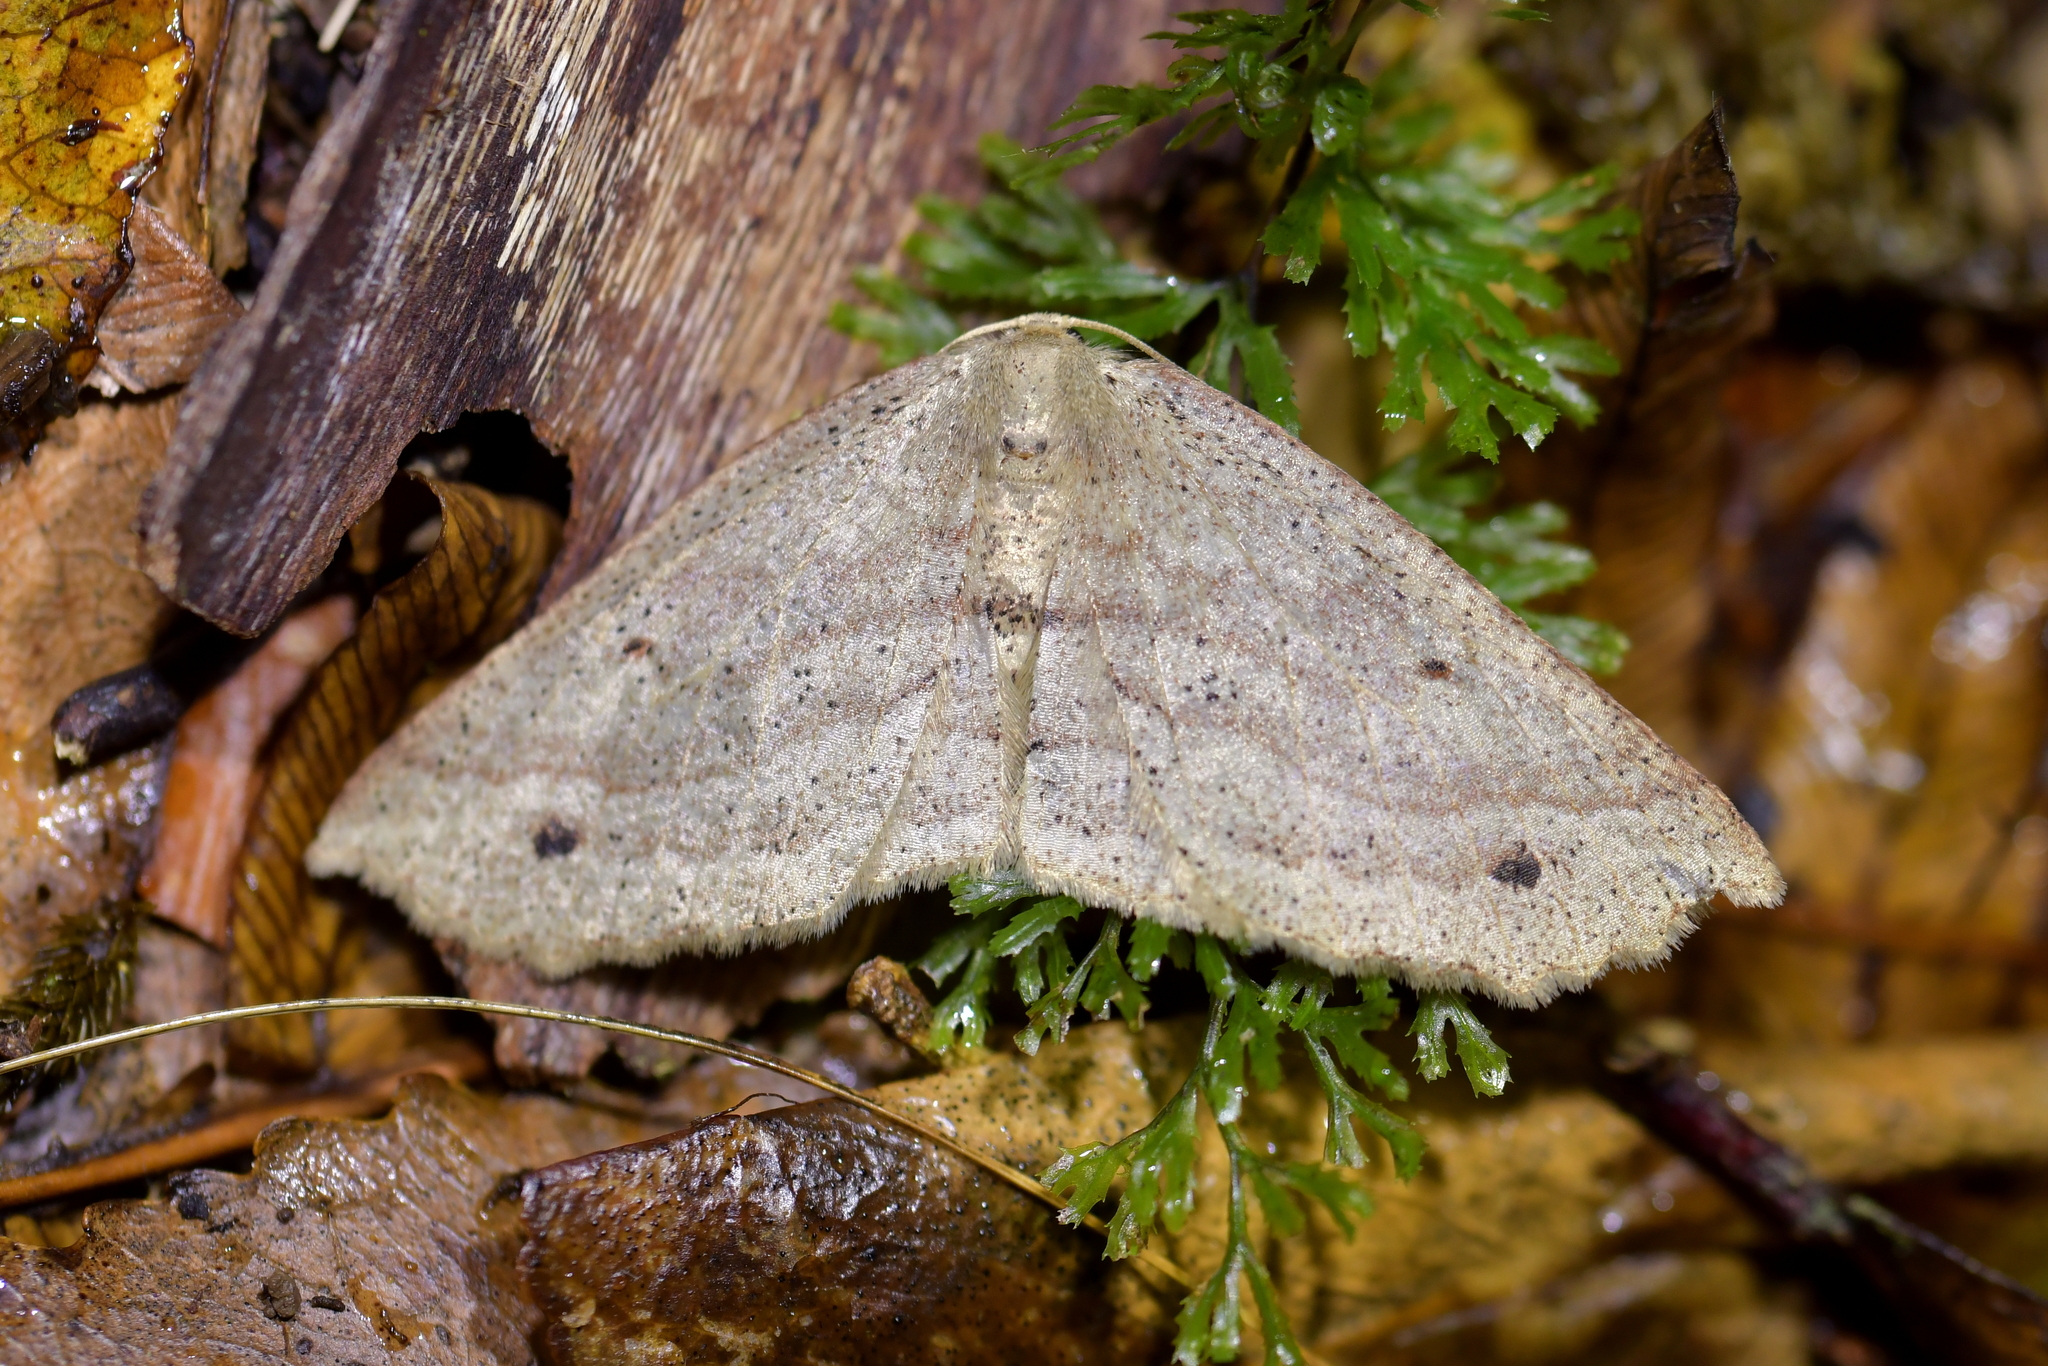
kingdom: Animalia
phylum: Arthropoda
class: Insecta
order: Lepidoptera
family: Geometridae
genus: Xyridacma
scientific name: Xyridacma veronicae
